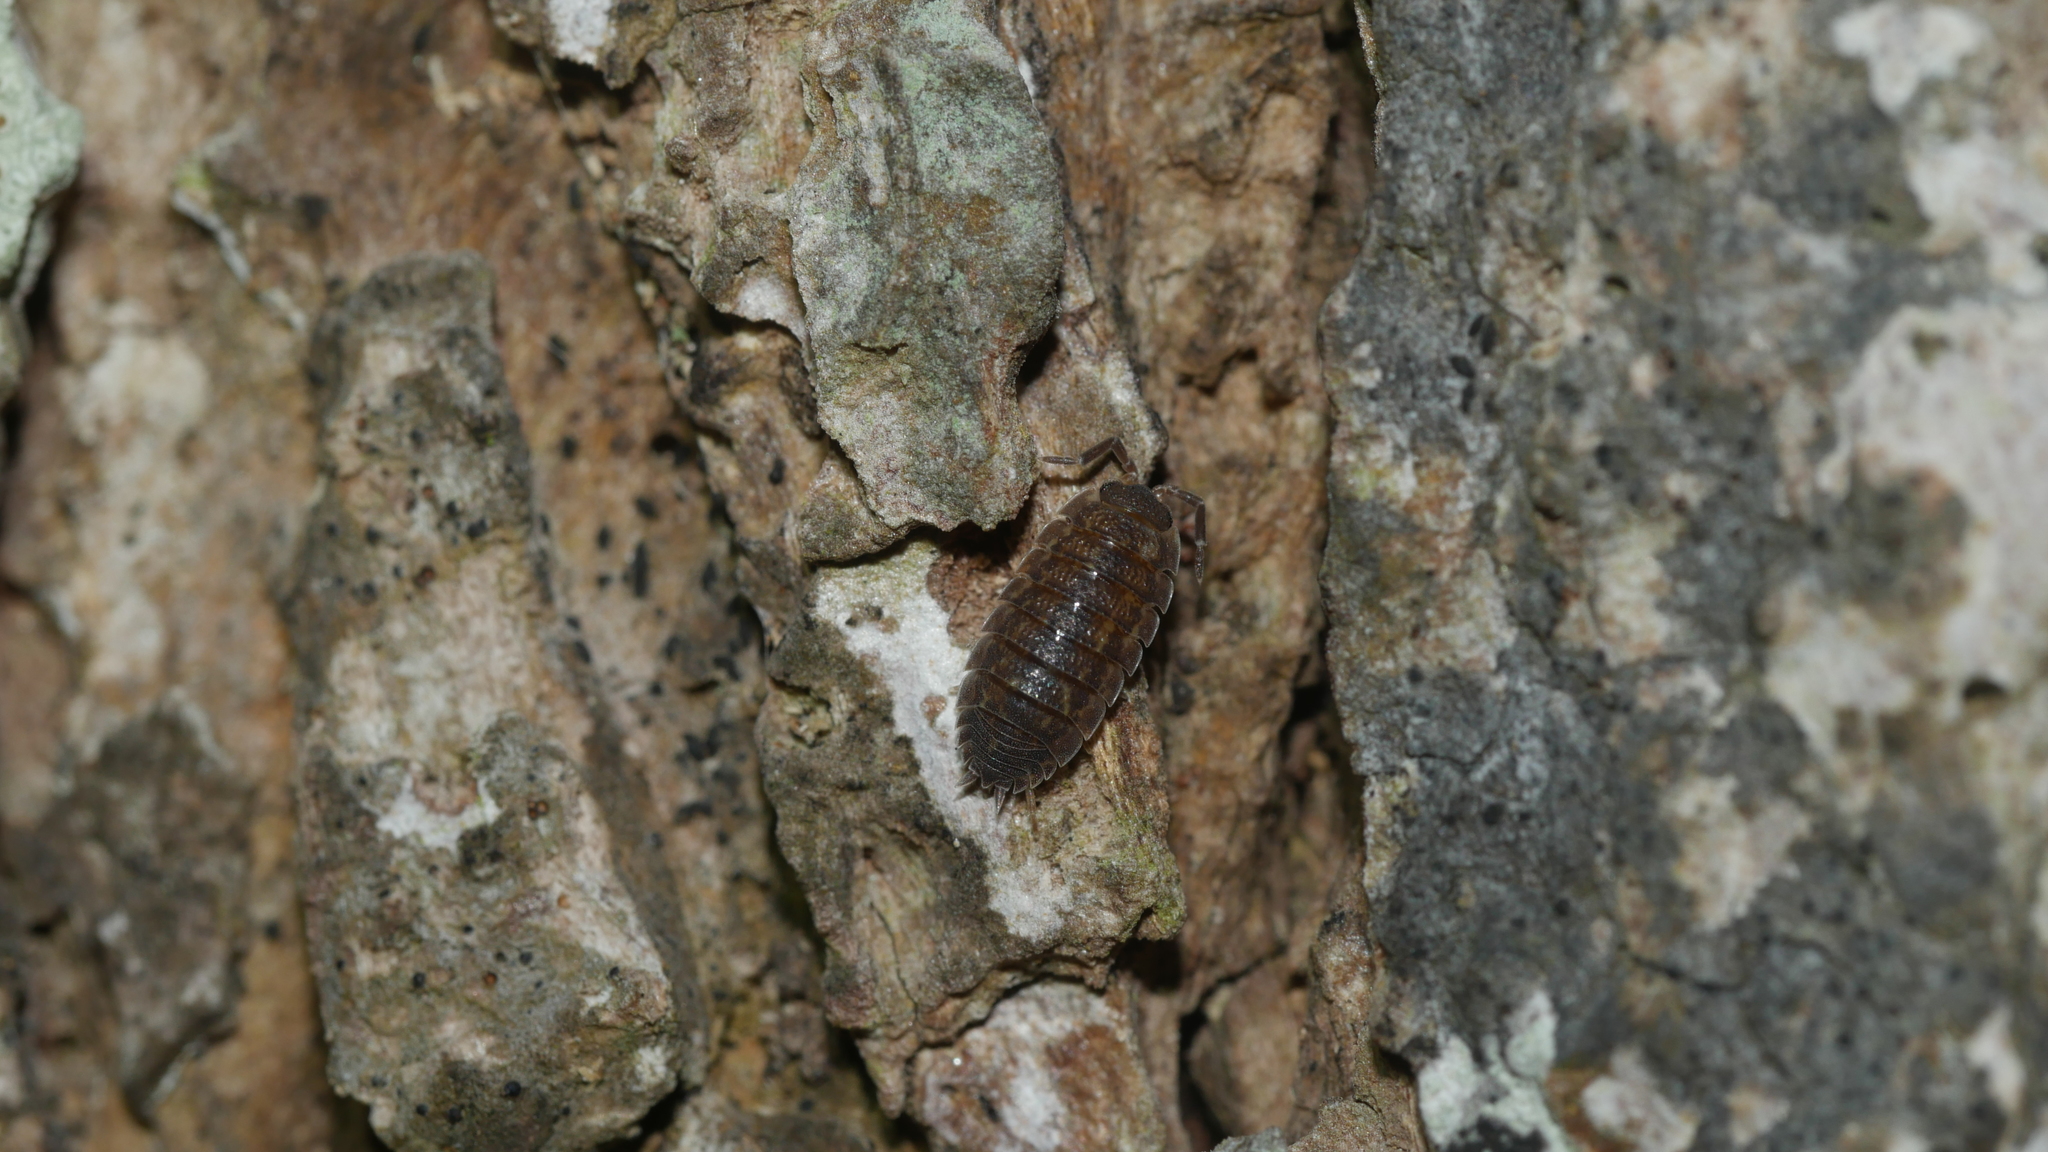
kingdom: Animalia
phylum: Arthropoda
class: Malacostraca
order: Isopoda
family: Porcellionidae
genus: Porcellio
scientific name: Porcellio scaber
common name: Common rough woodlouse
